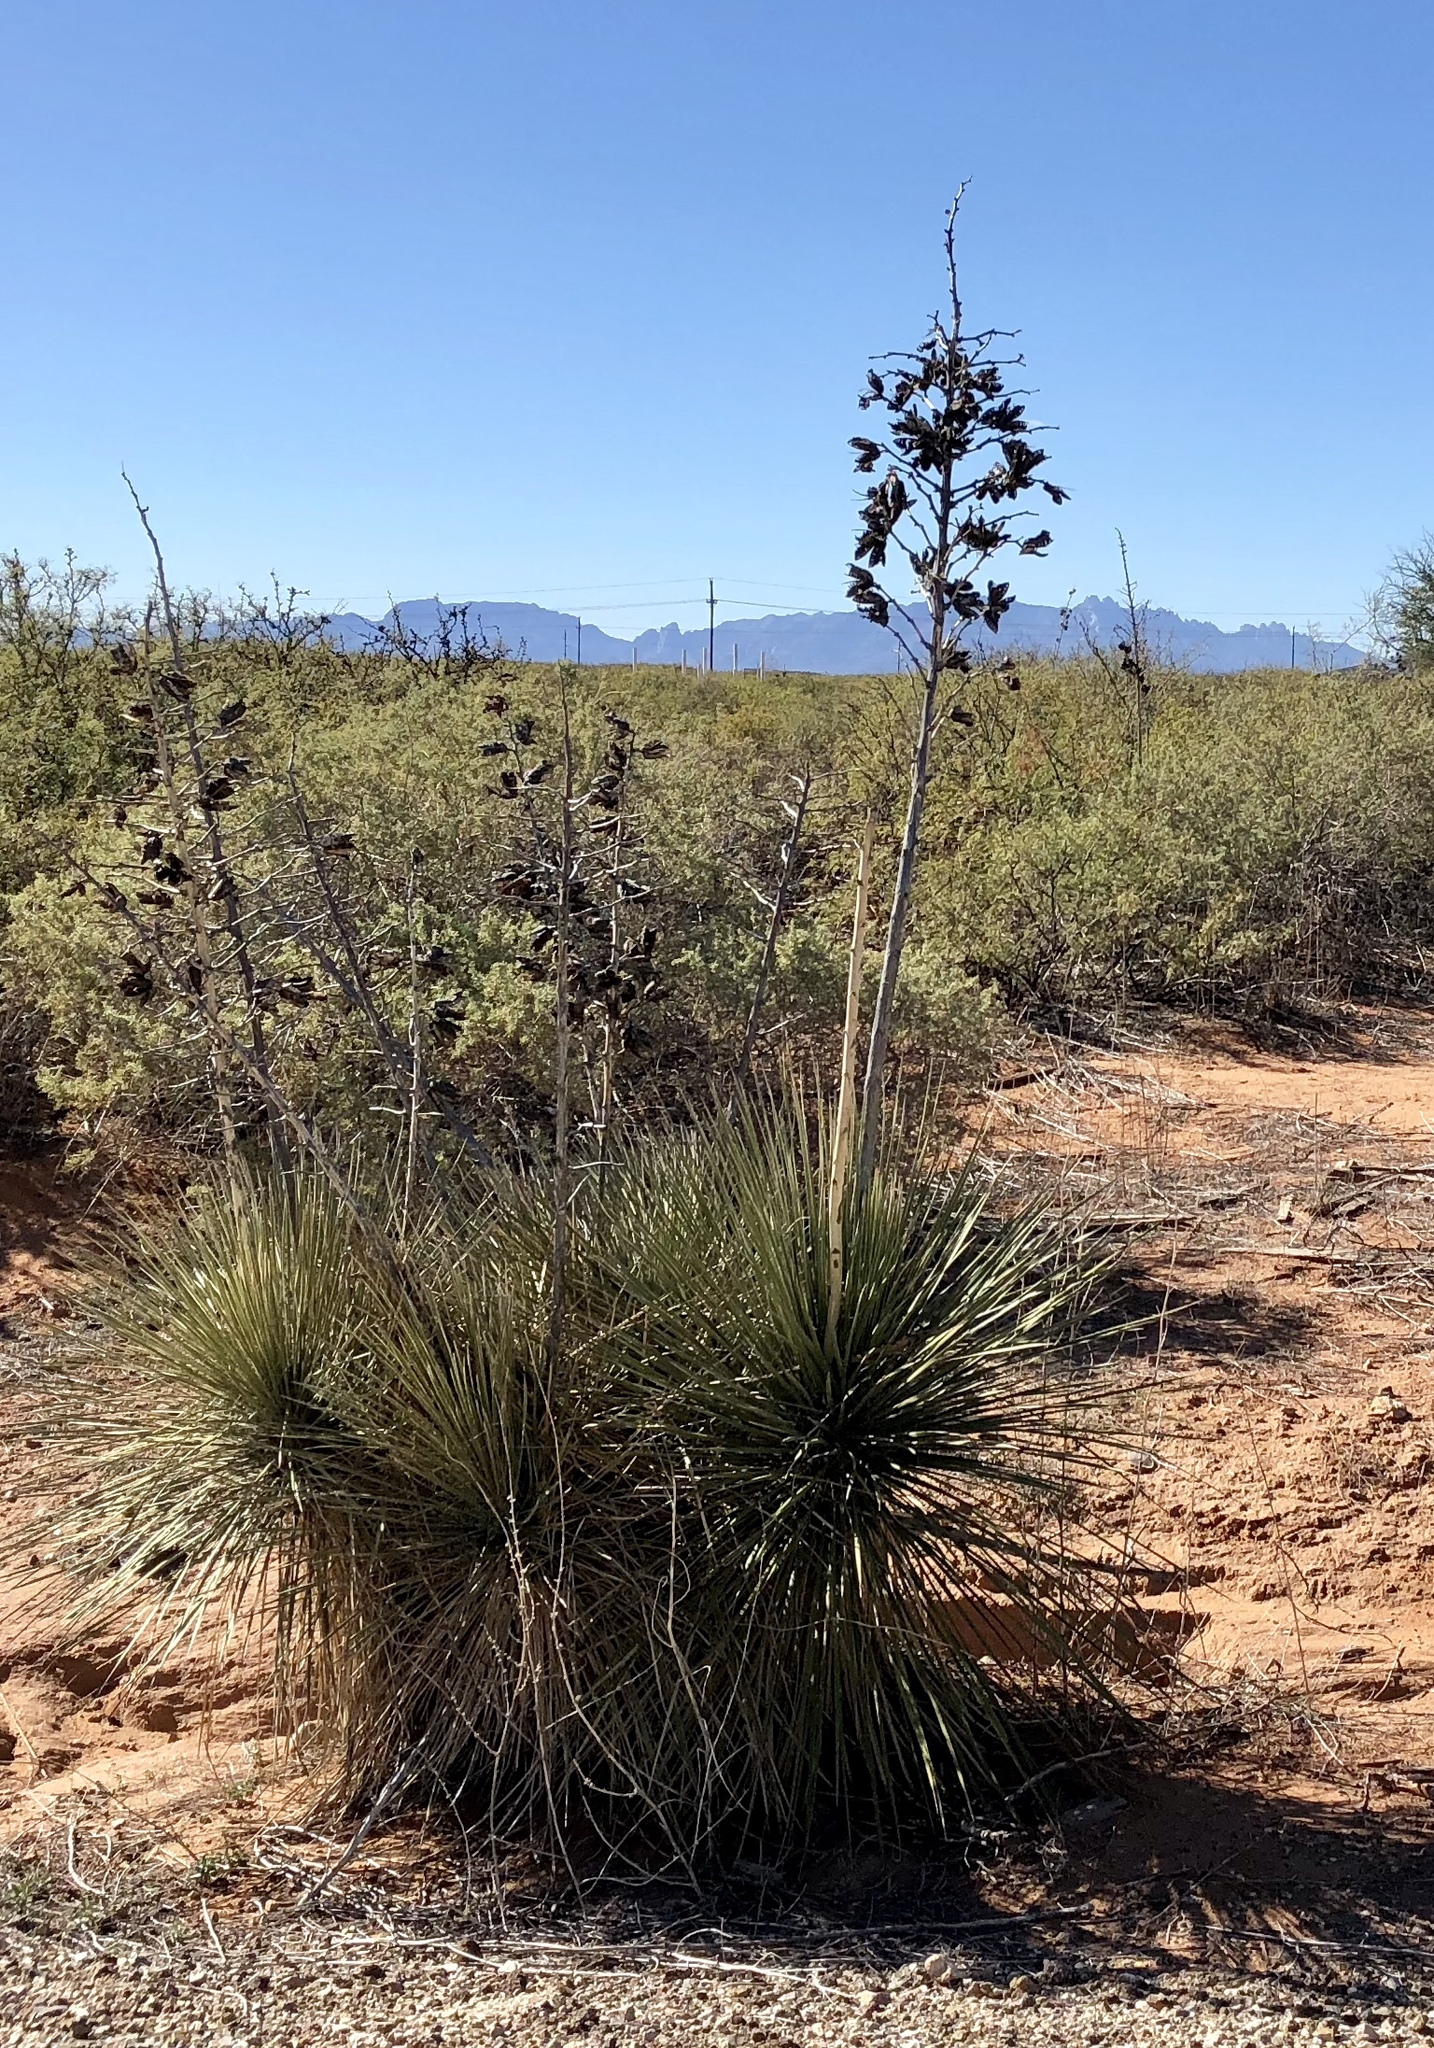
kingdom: Plantae
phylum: Tracheophyta
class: Liliopsida
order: Asparagales
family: Asparagaceae
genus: Yucca
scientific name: Yucca elata
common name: Palmella
